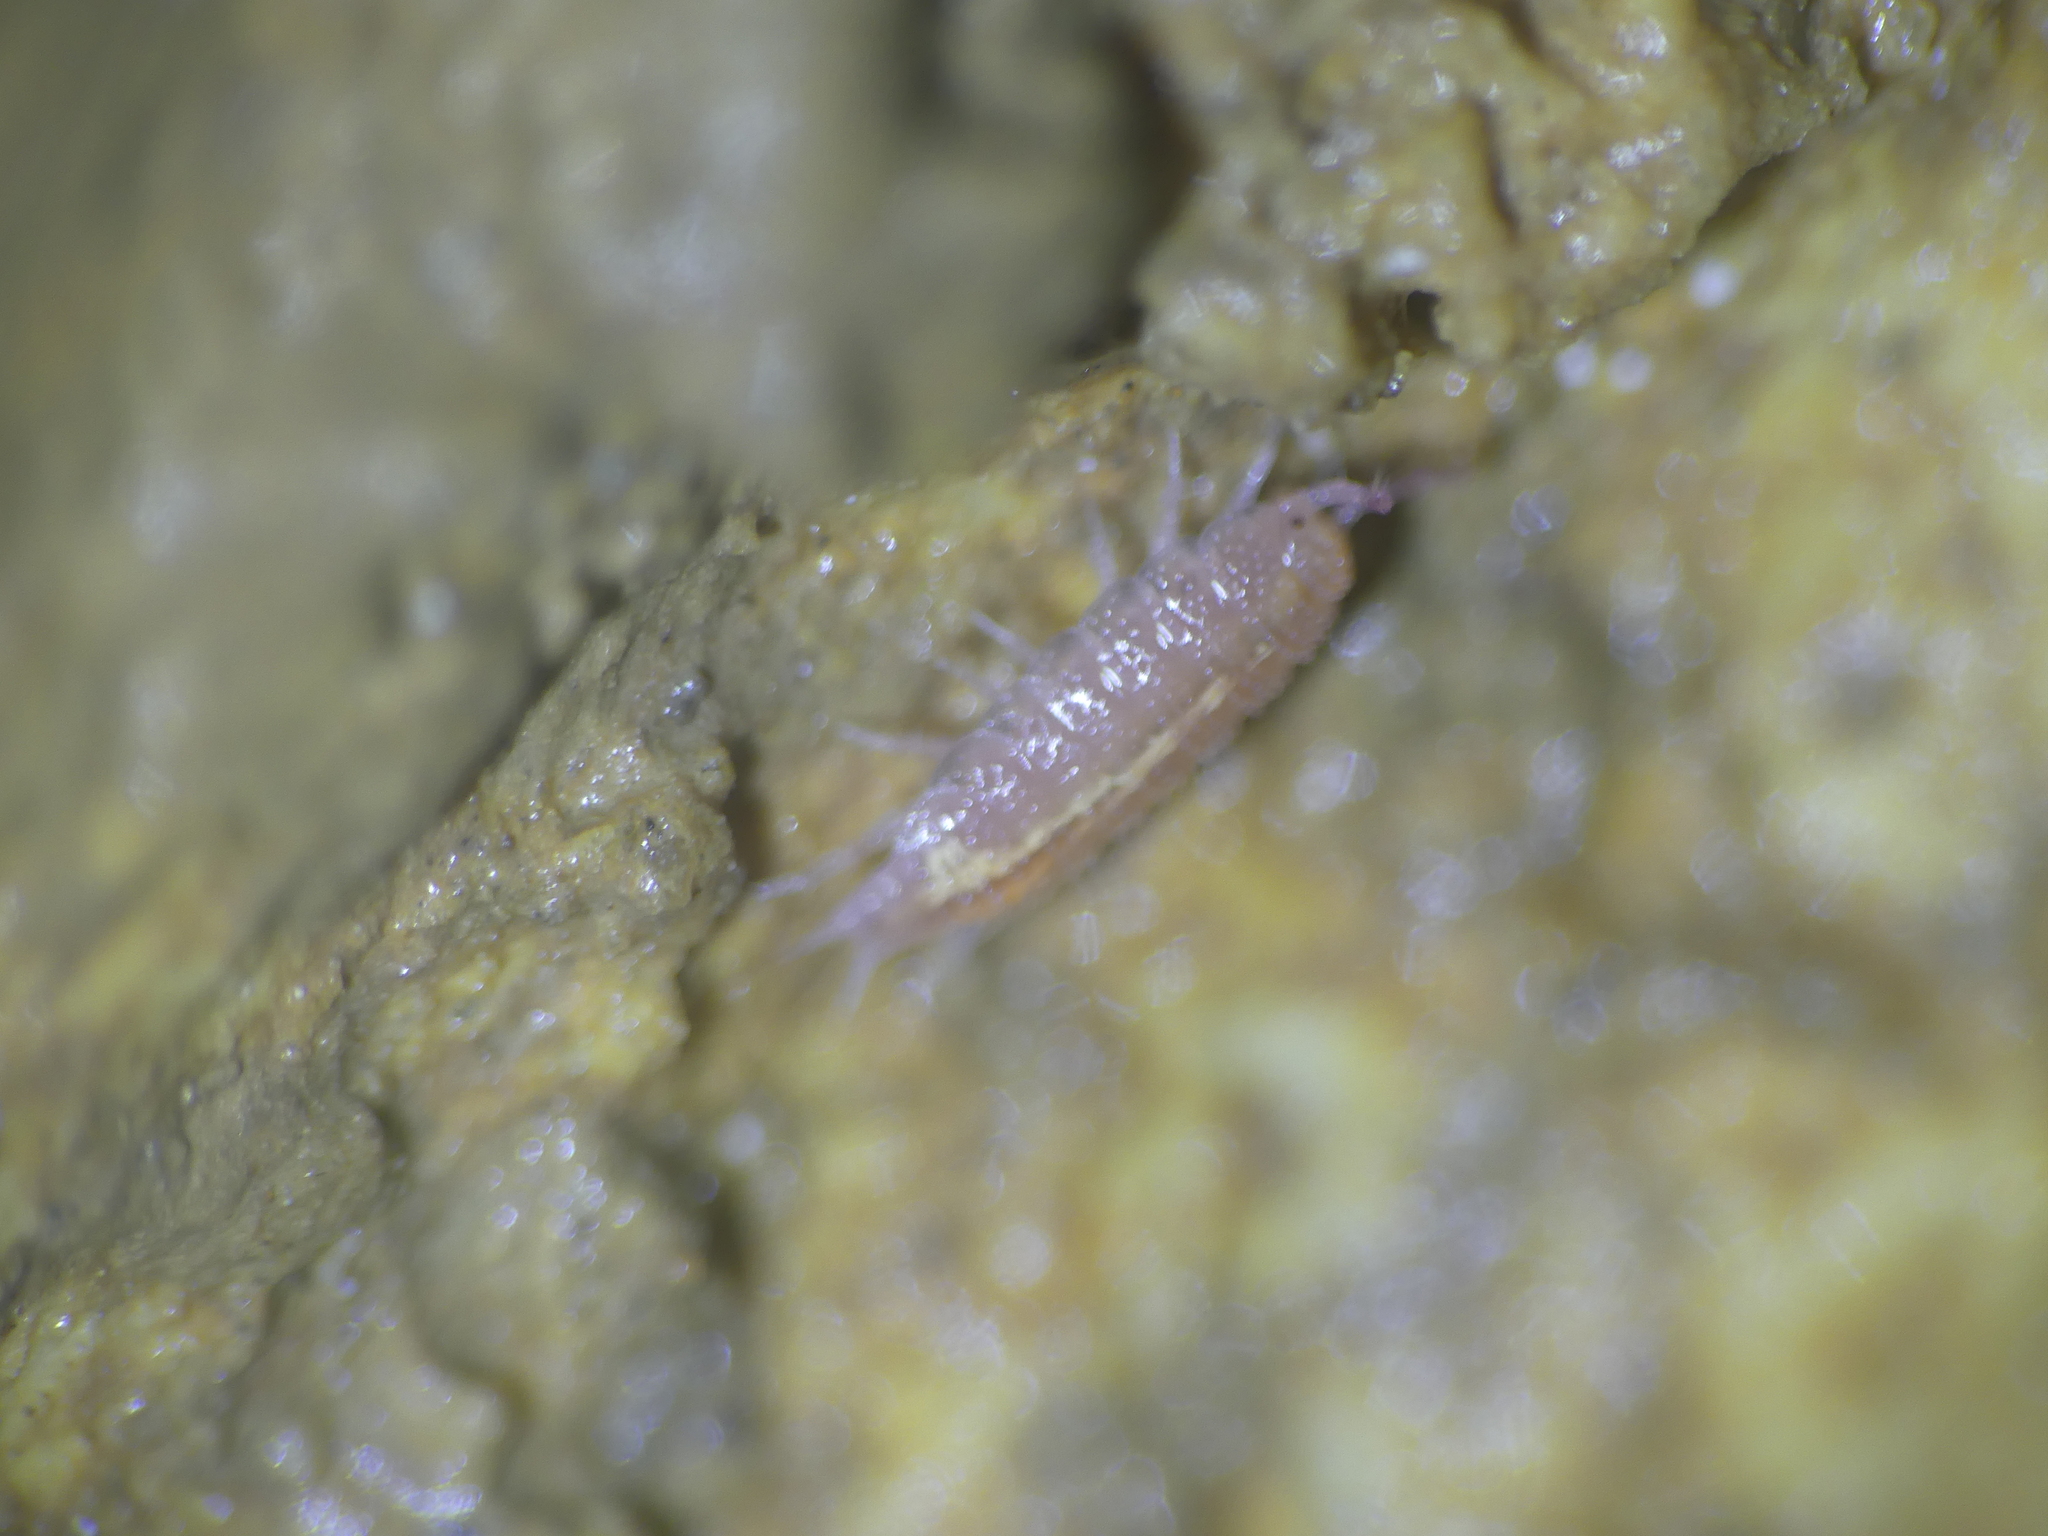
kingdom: Animalia
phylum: Arthropoda
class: Malacostraca
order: Isopoda
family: Trichoniscidae
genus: Androniscus
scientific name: Androniscus dentiger
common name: Rosy woodlouse
